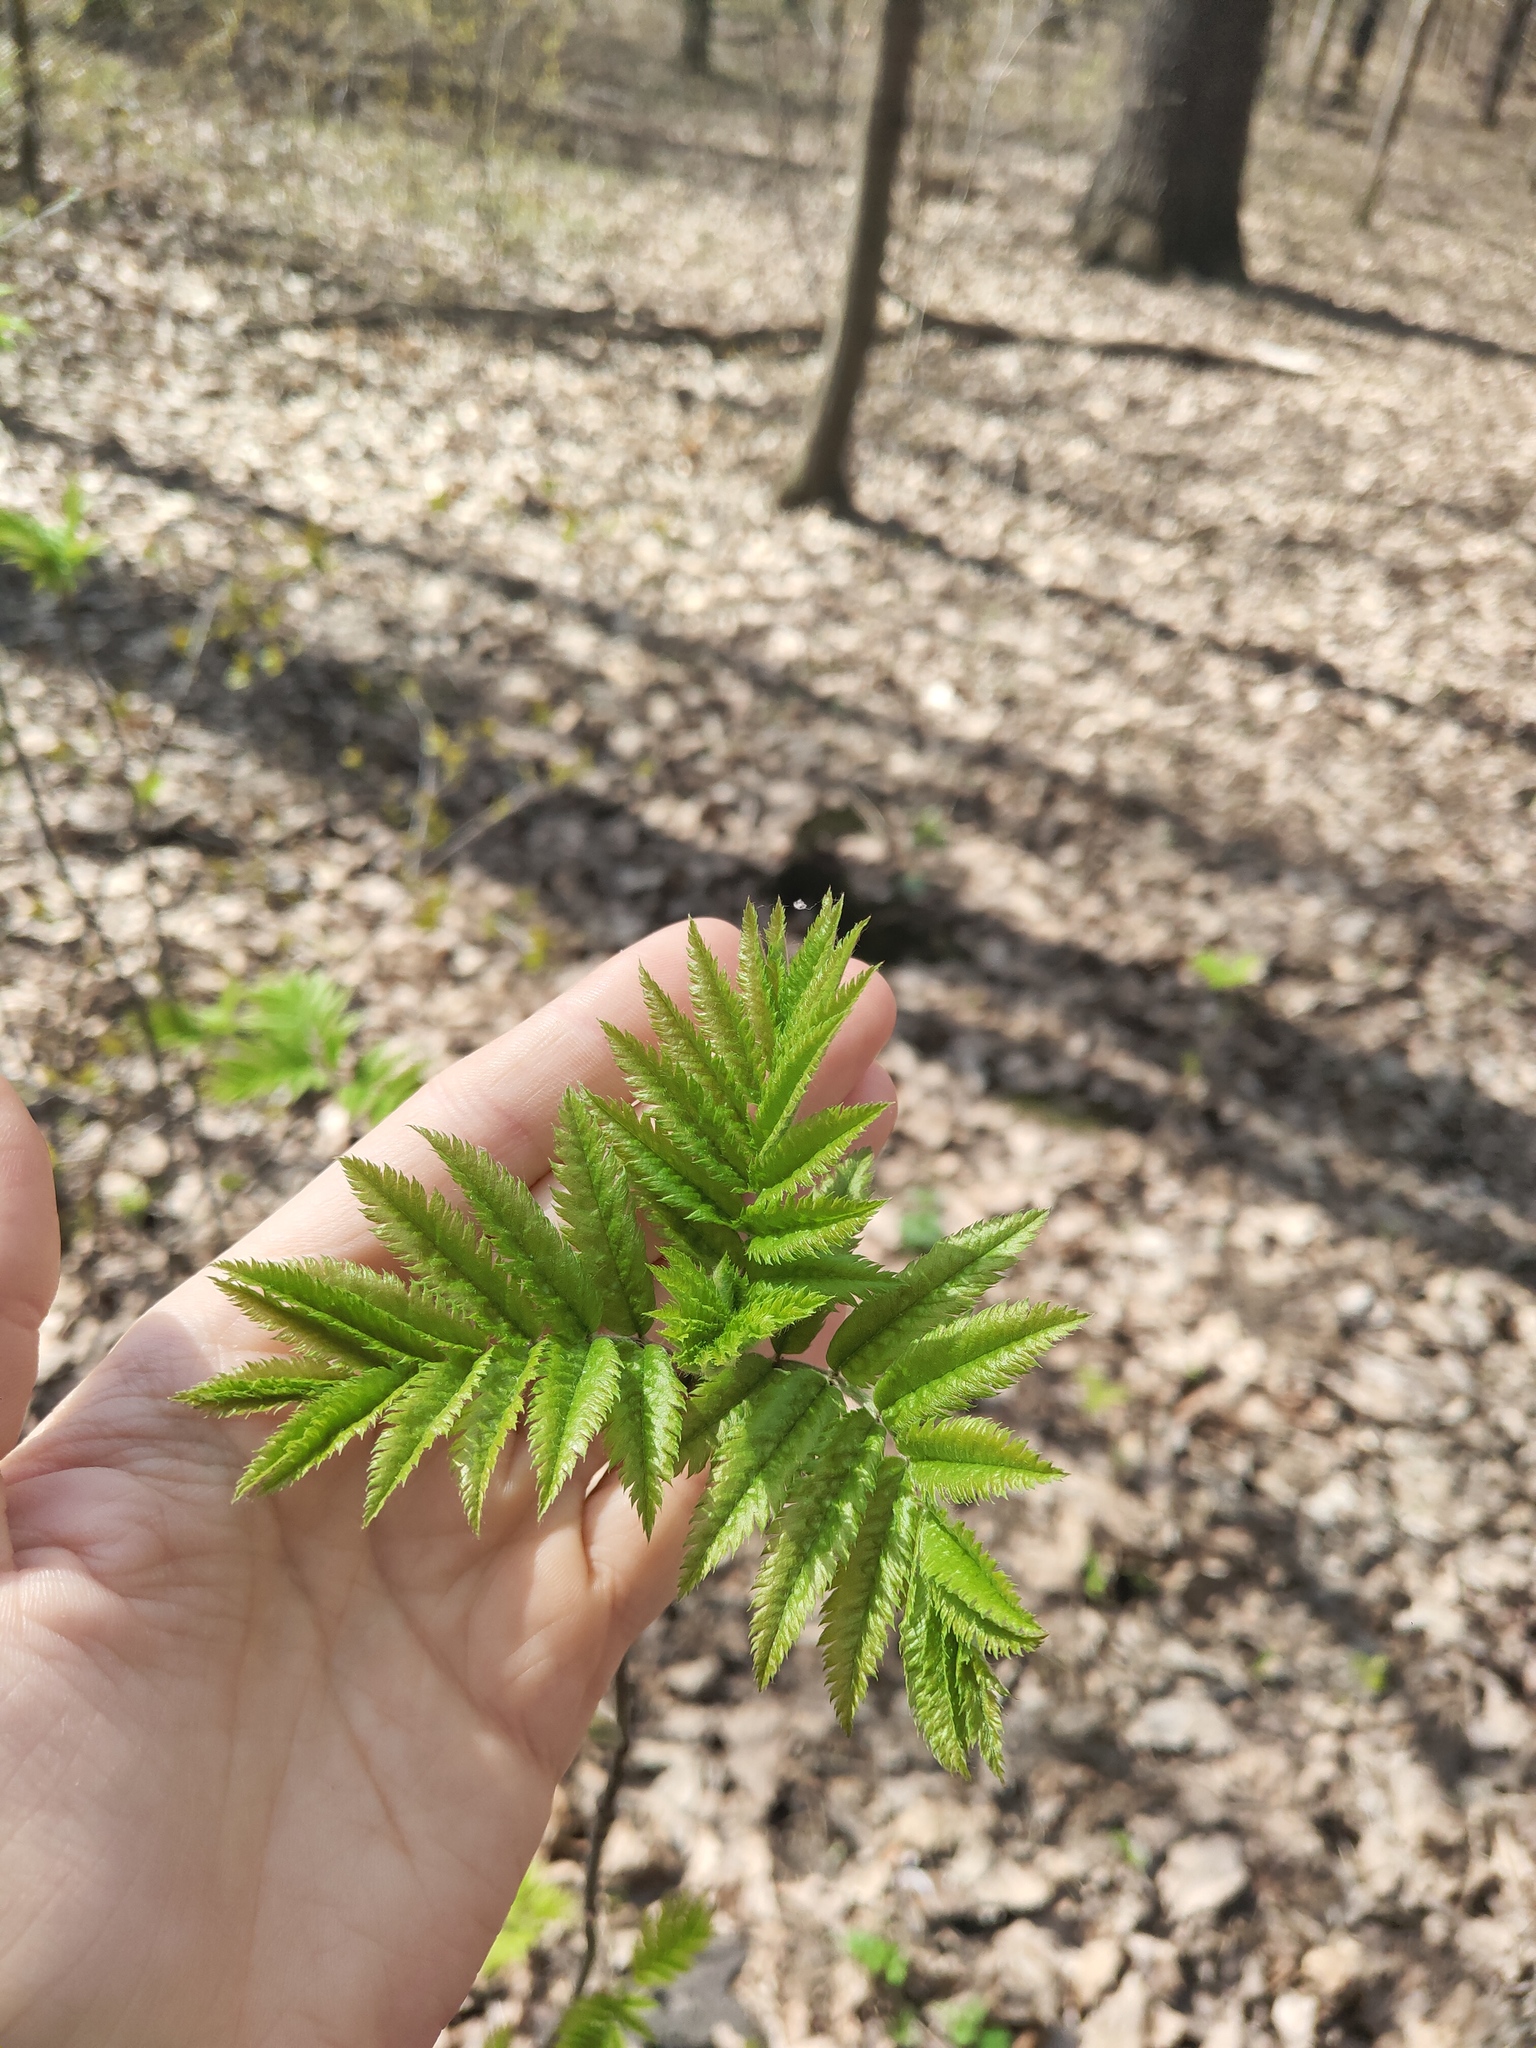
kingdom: Plantae
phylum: Tracheophyta
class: Magnoliopsida
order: Rosales
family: Rosaceae
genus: Sorbus
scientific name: Sorbus aucuparia
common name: Rowan
